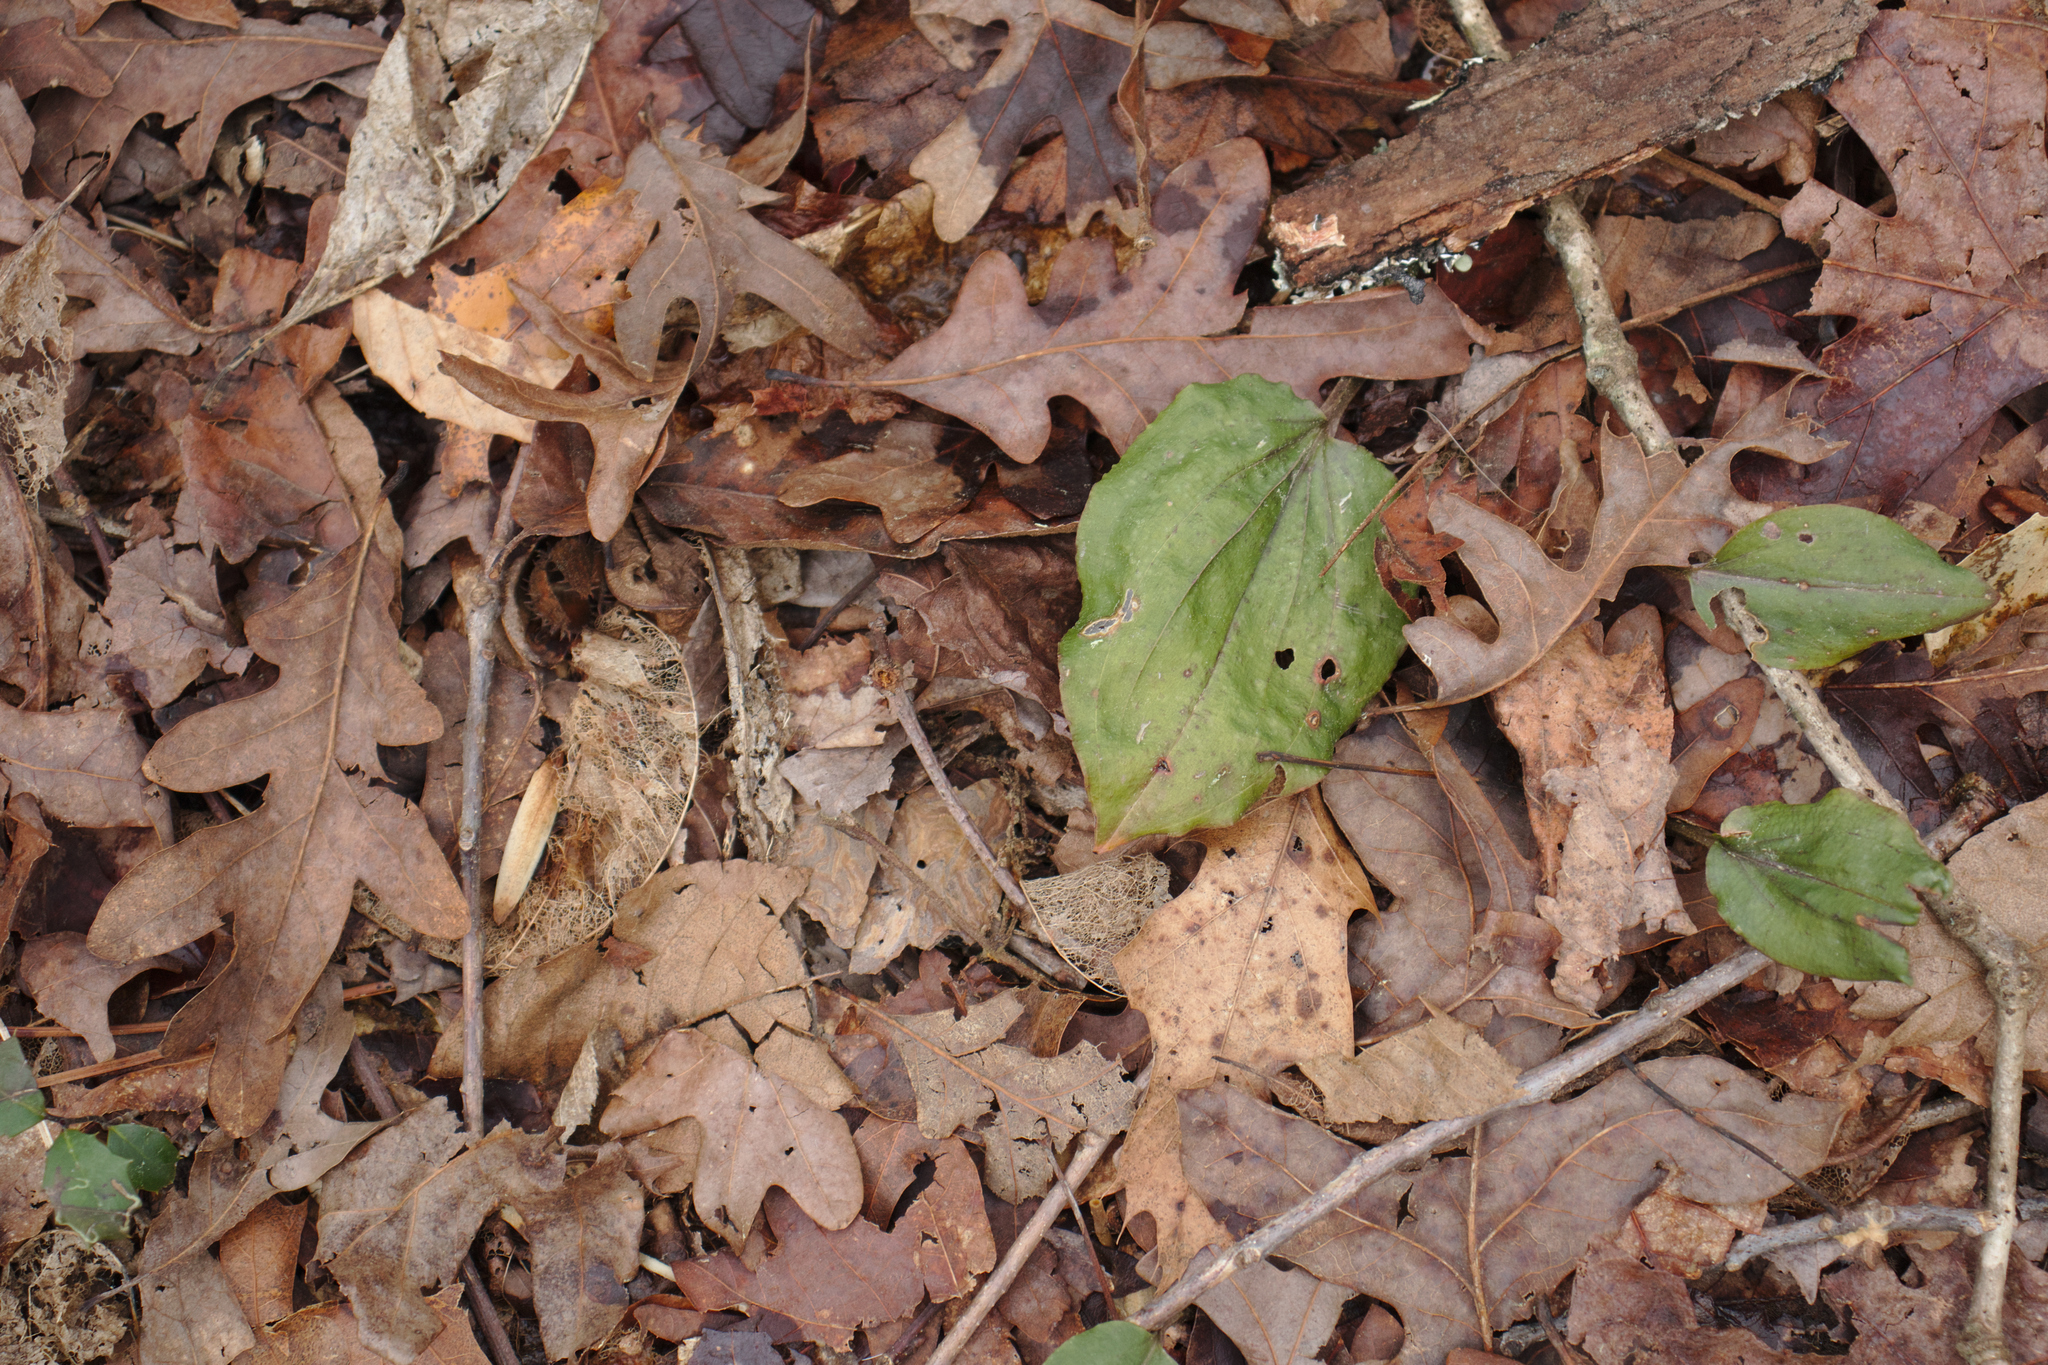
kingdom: Plantae
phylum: Tracheophyta
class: Liliopsida
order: Asparagales
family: Orchidaceae
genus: Tipularia
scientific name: Tipularia discolor
